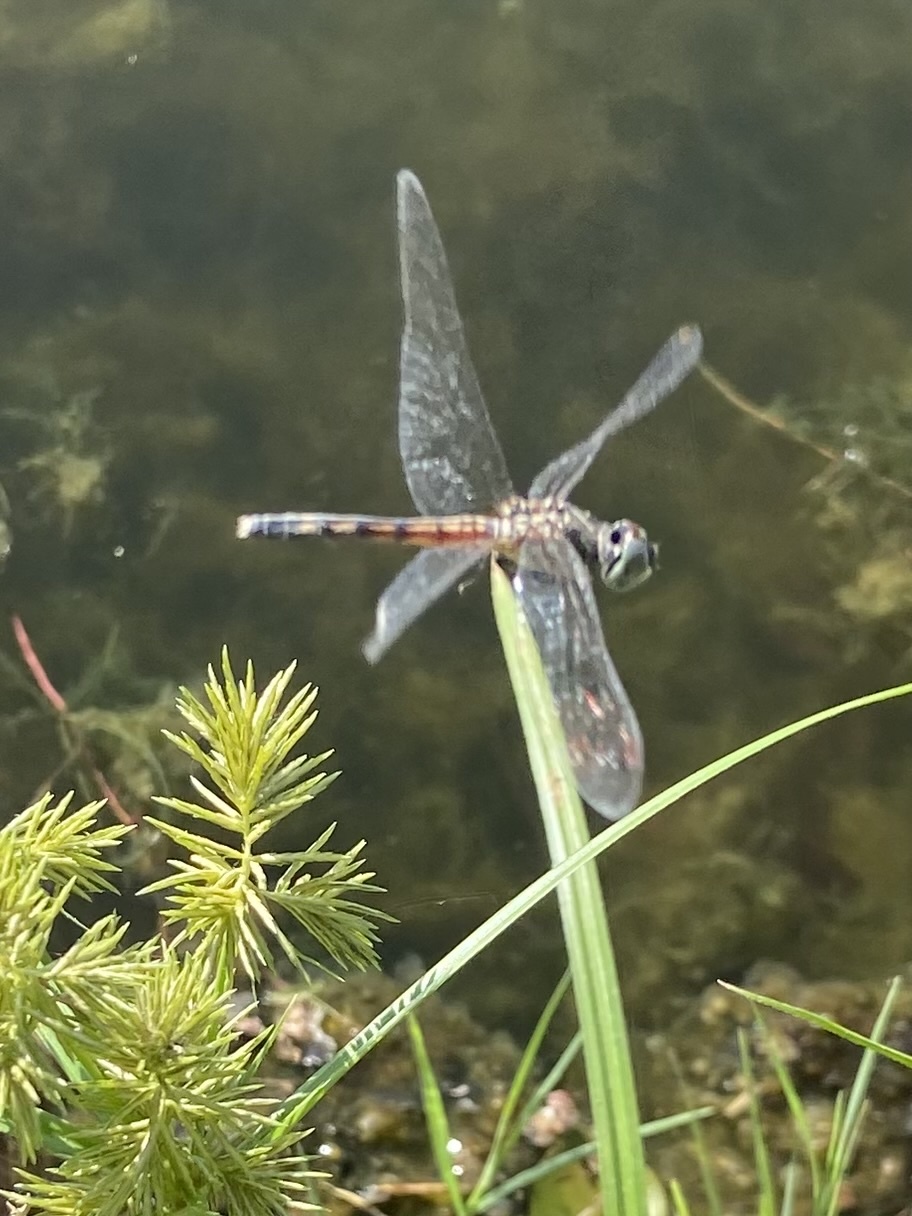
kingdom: Animalia
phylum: Arthropoda
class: Insecta
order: Odonata
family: Libellulidae
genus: Pachydiplax
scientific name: Pachydiplax longipennis
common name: Blue dasher
